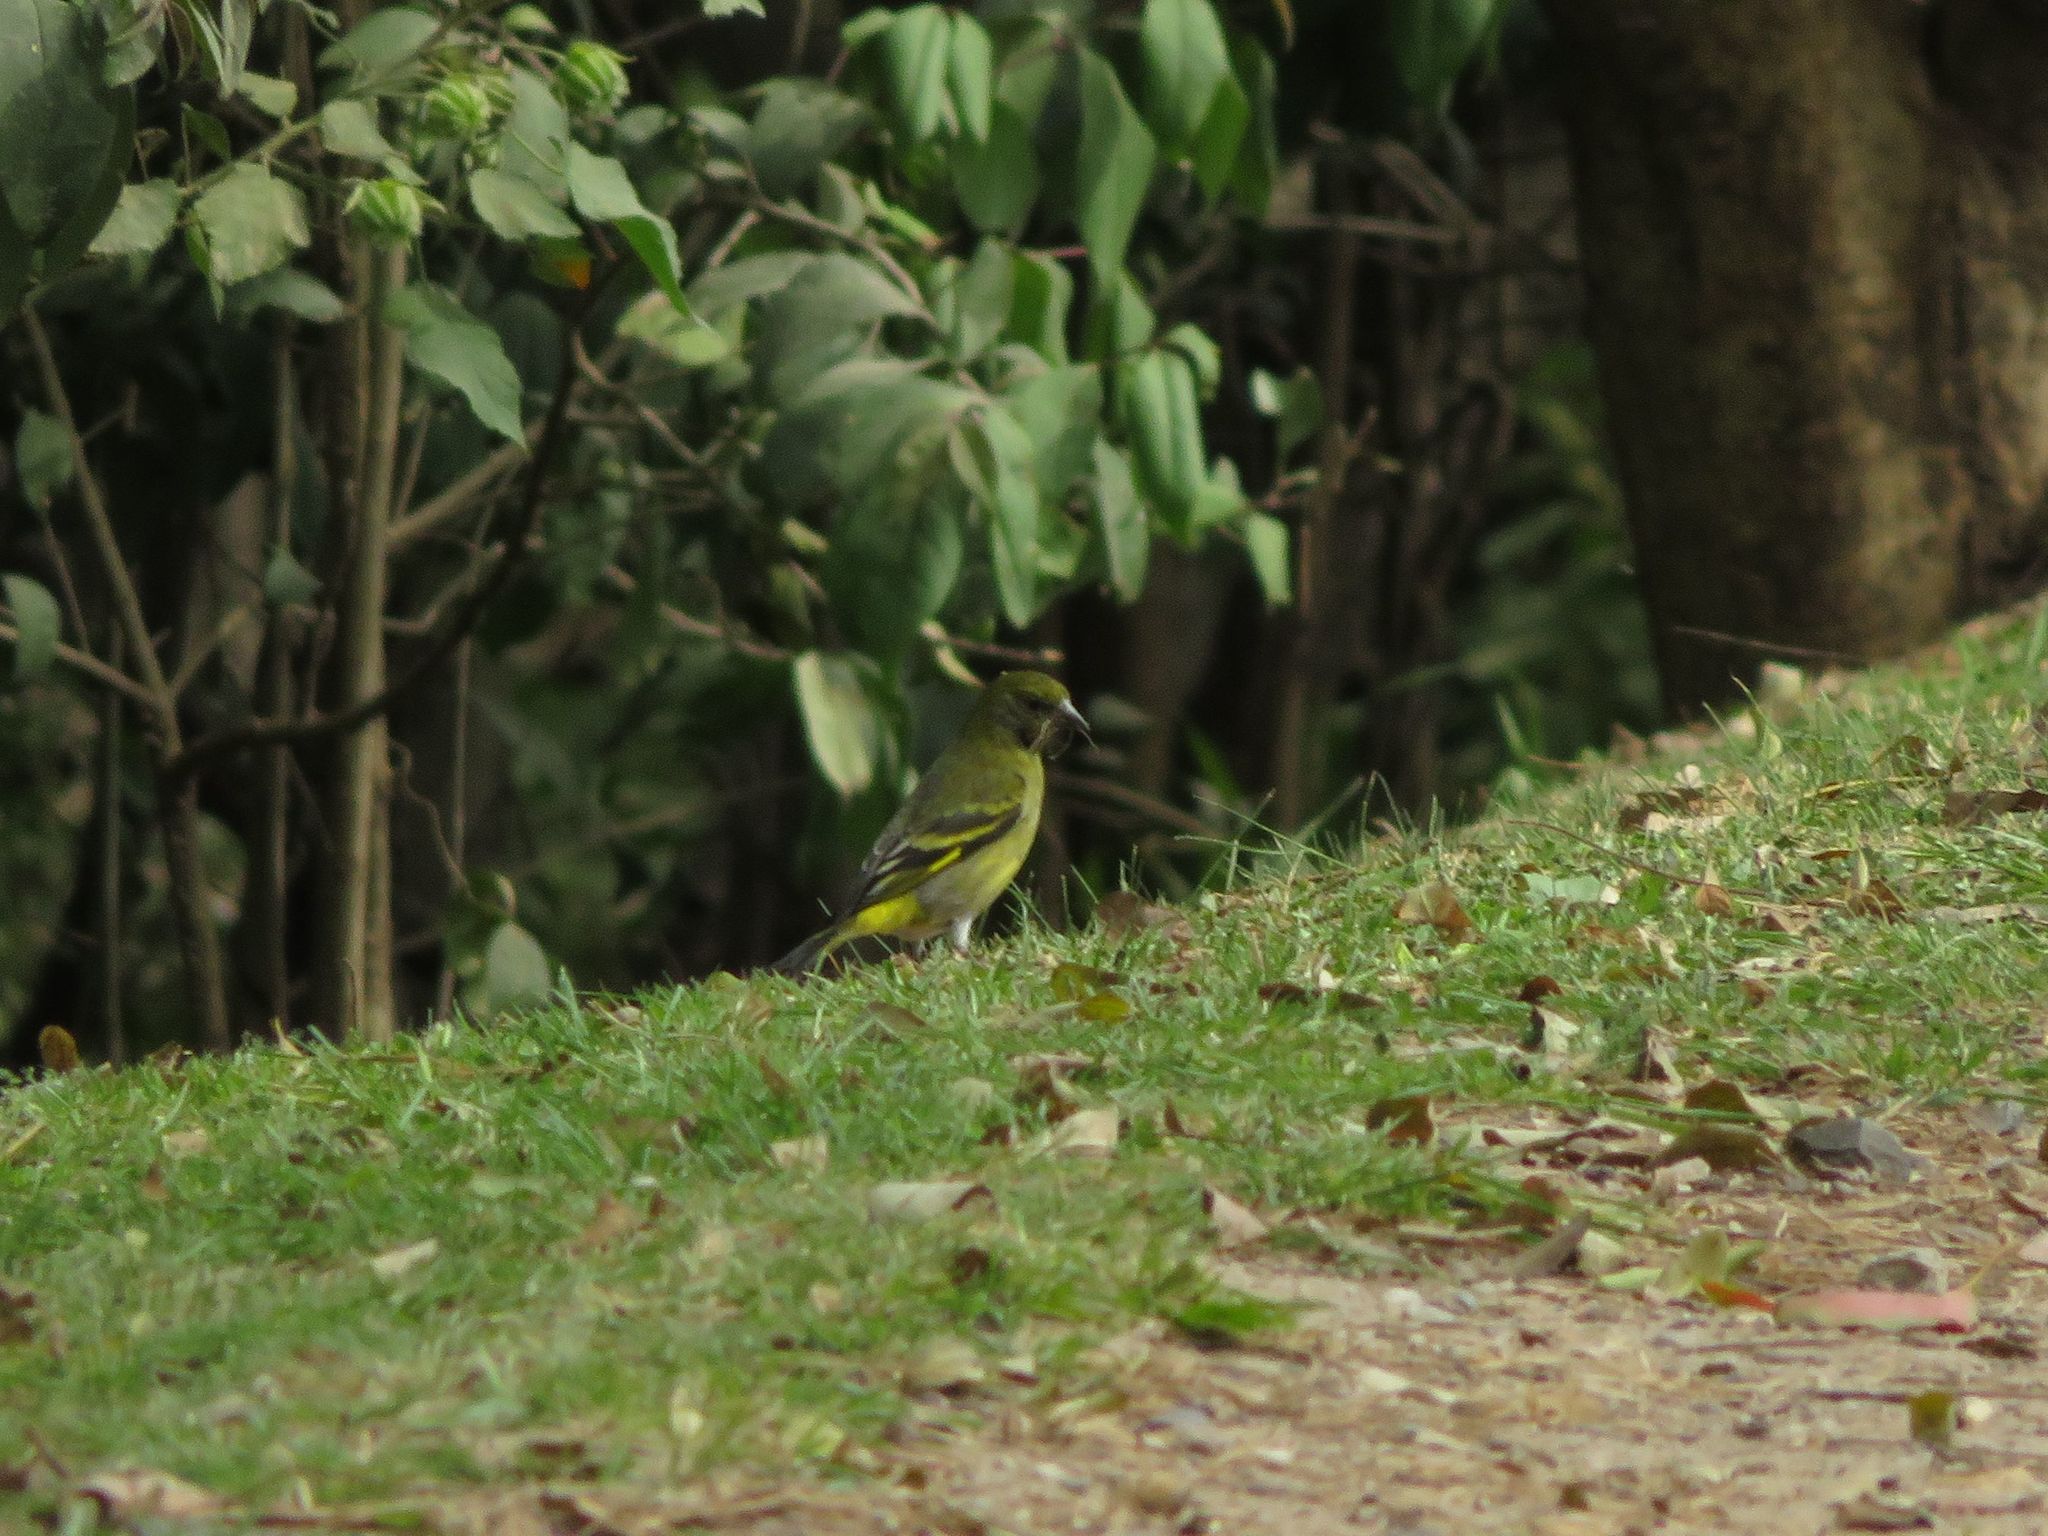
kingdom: Animalia
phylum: Chordata
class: Aves
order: Passeriformes
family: Fringillidae
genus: Spinus
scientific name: Spinus magellanicus
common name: Hooded siskin
